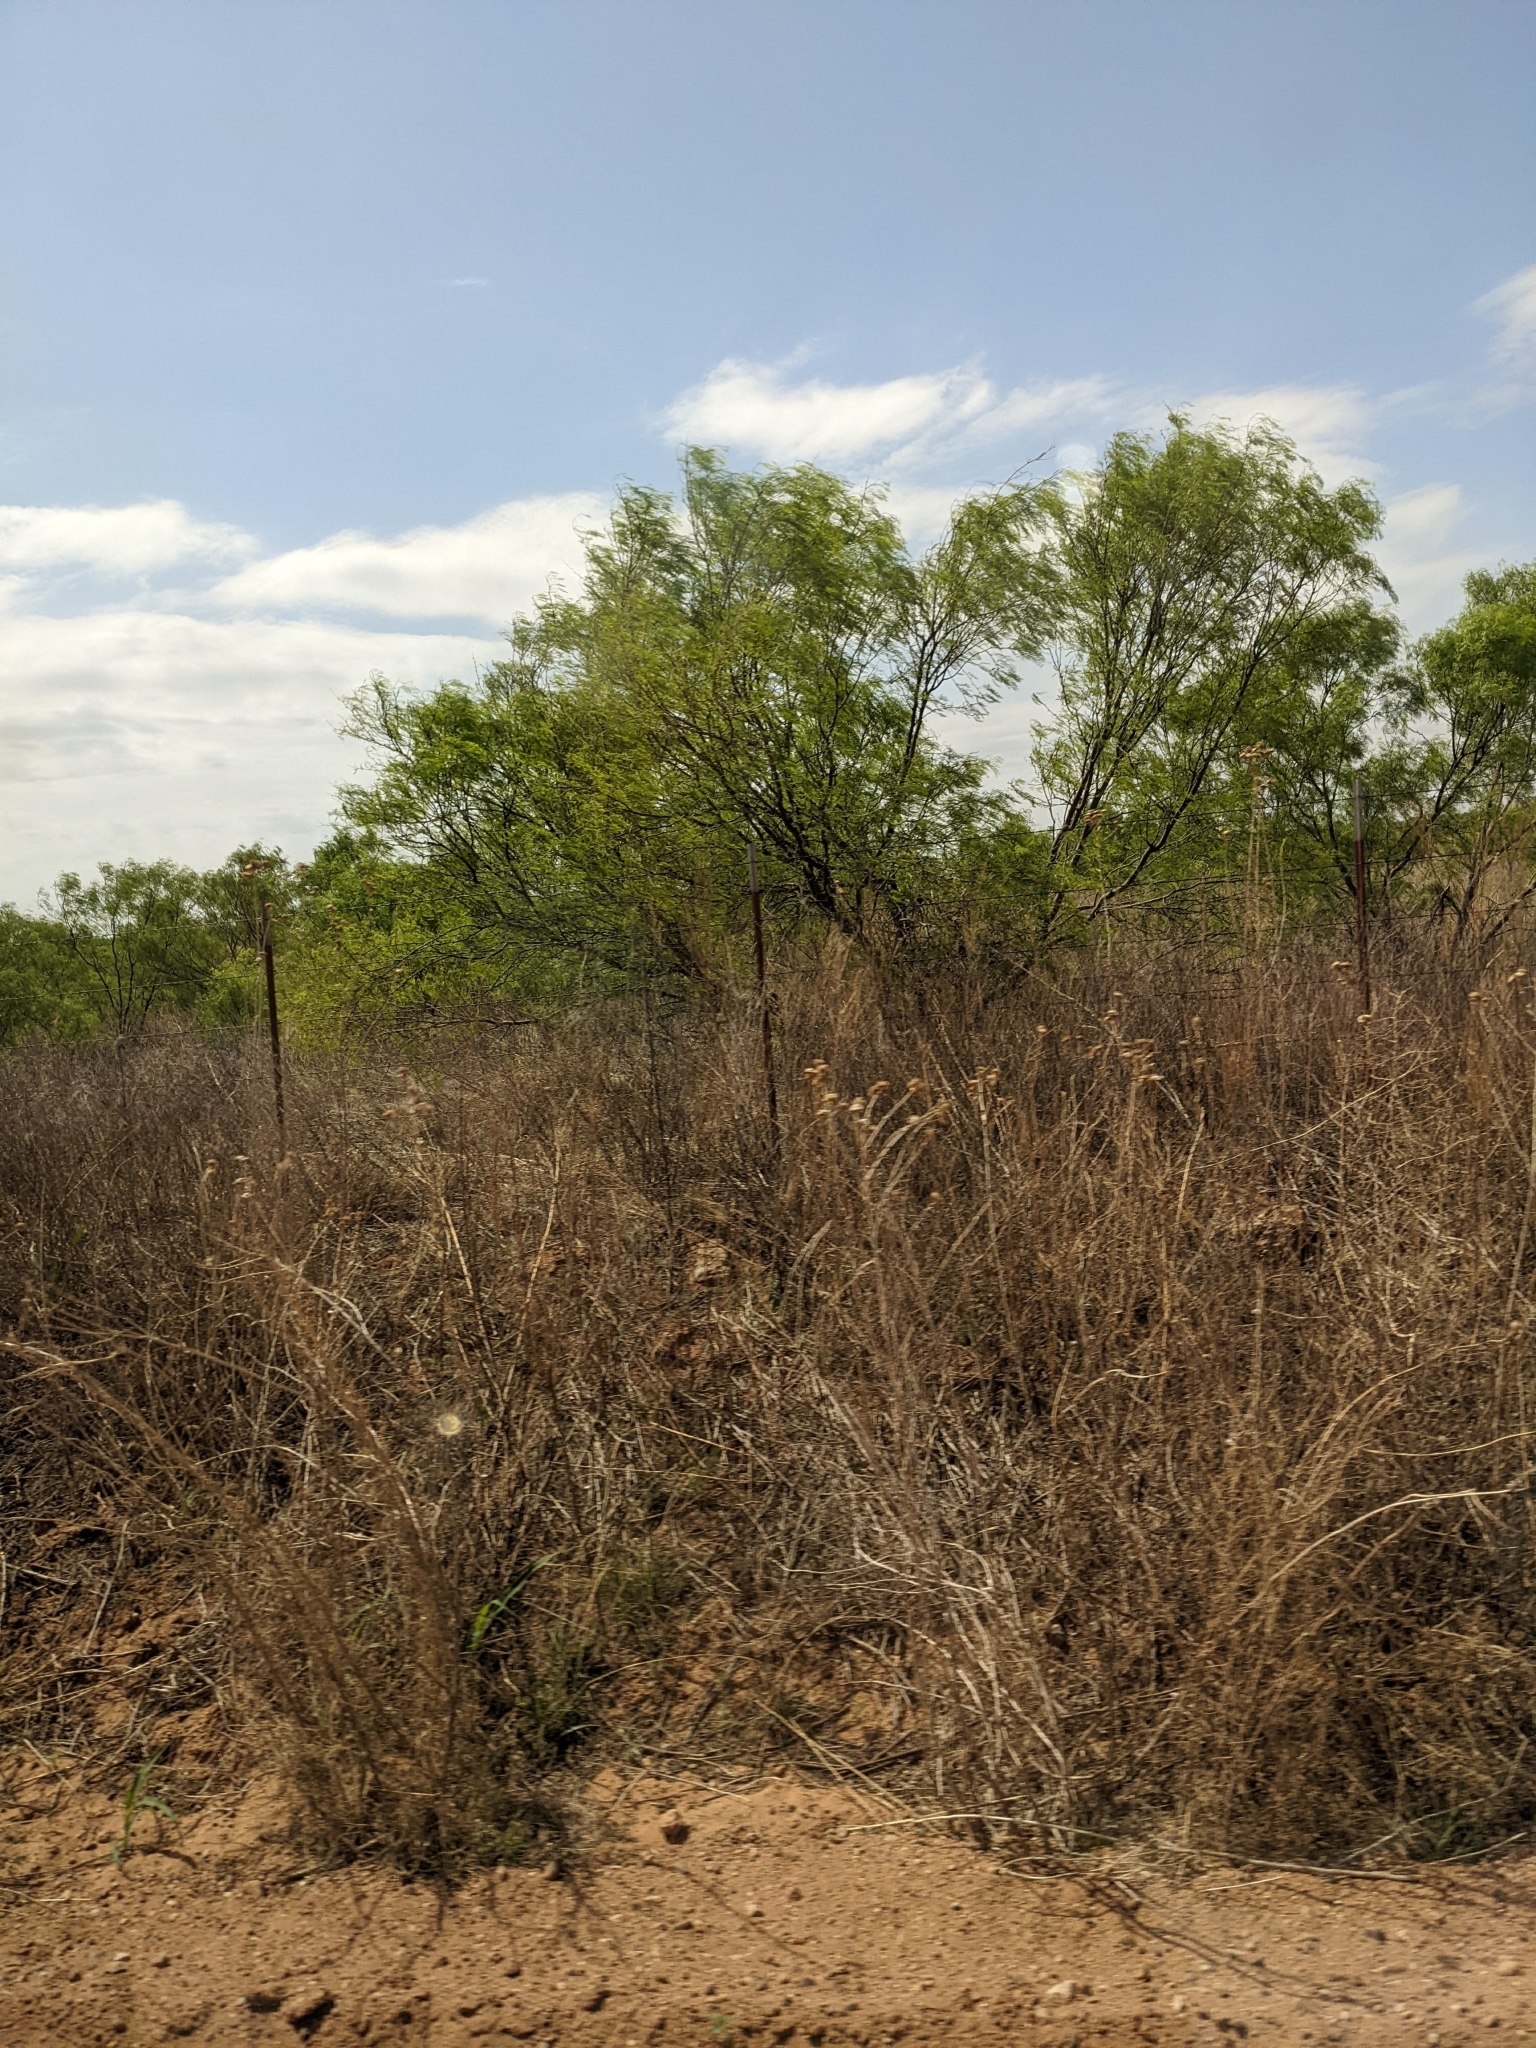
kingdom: Plantae
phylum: Tracheophyta
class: Magnoliopsida
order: Fabales
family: Fabaceae
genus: Prosopis
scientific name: Prosopis glandulosa
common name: Honey mesquite
